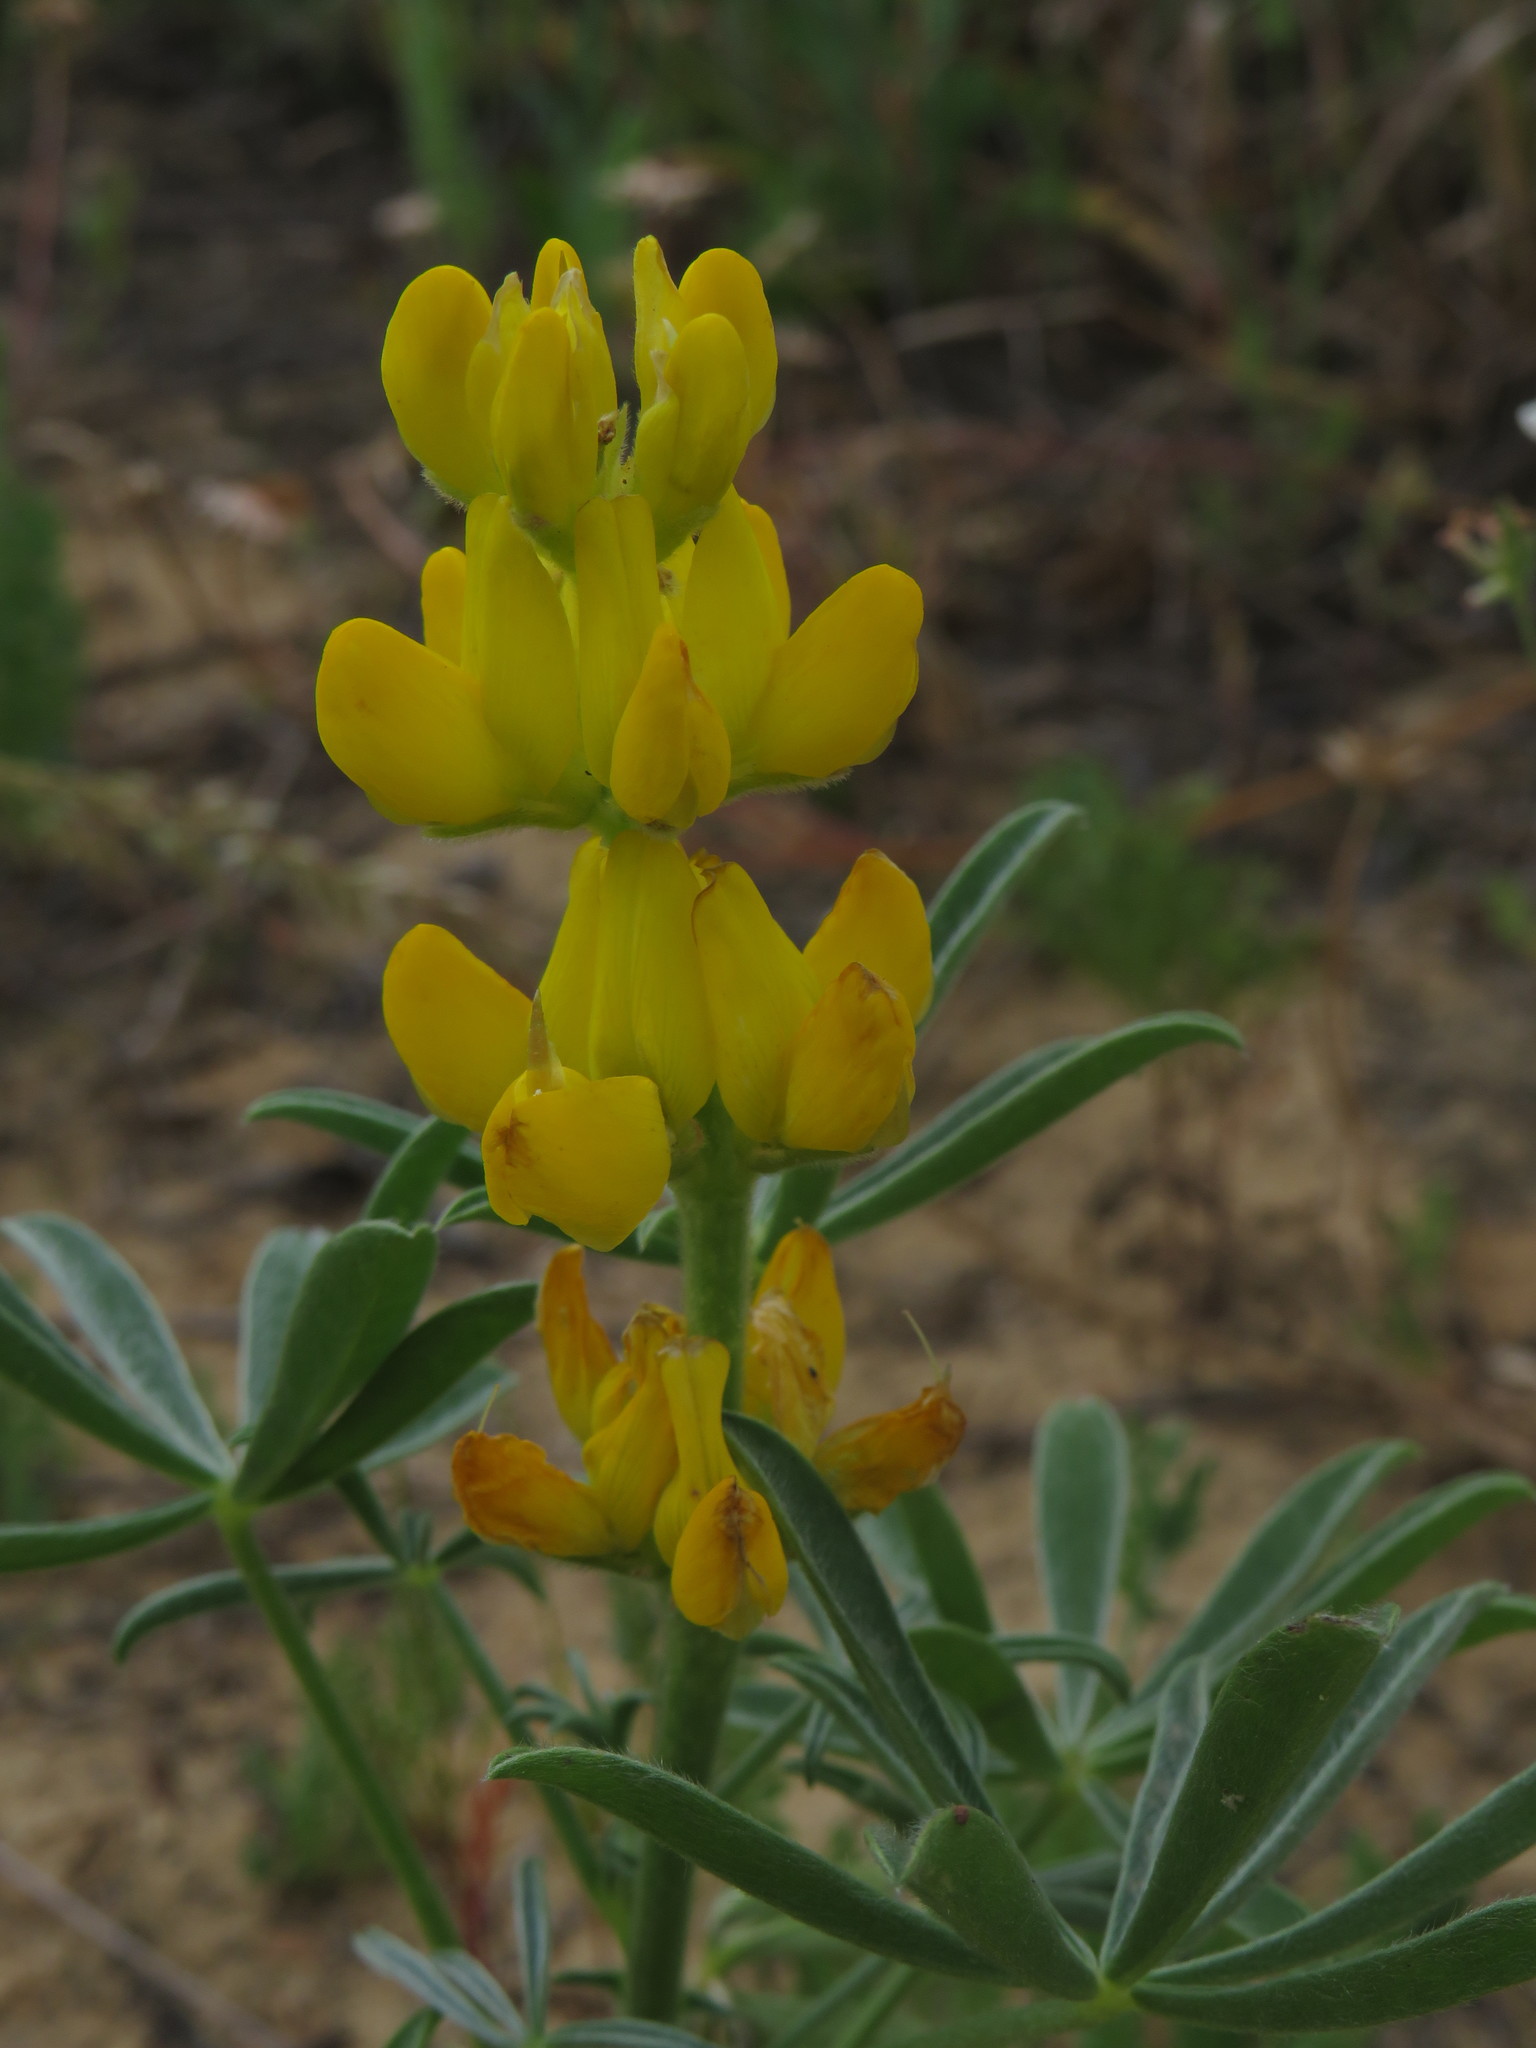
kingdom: Plantae
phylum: Tracheophyta
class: Magnoliopsida
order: Fabales
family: Fabaceae
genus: Lupinus
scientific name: Lupinus luteus
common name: European yellow lupine
